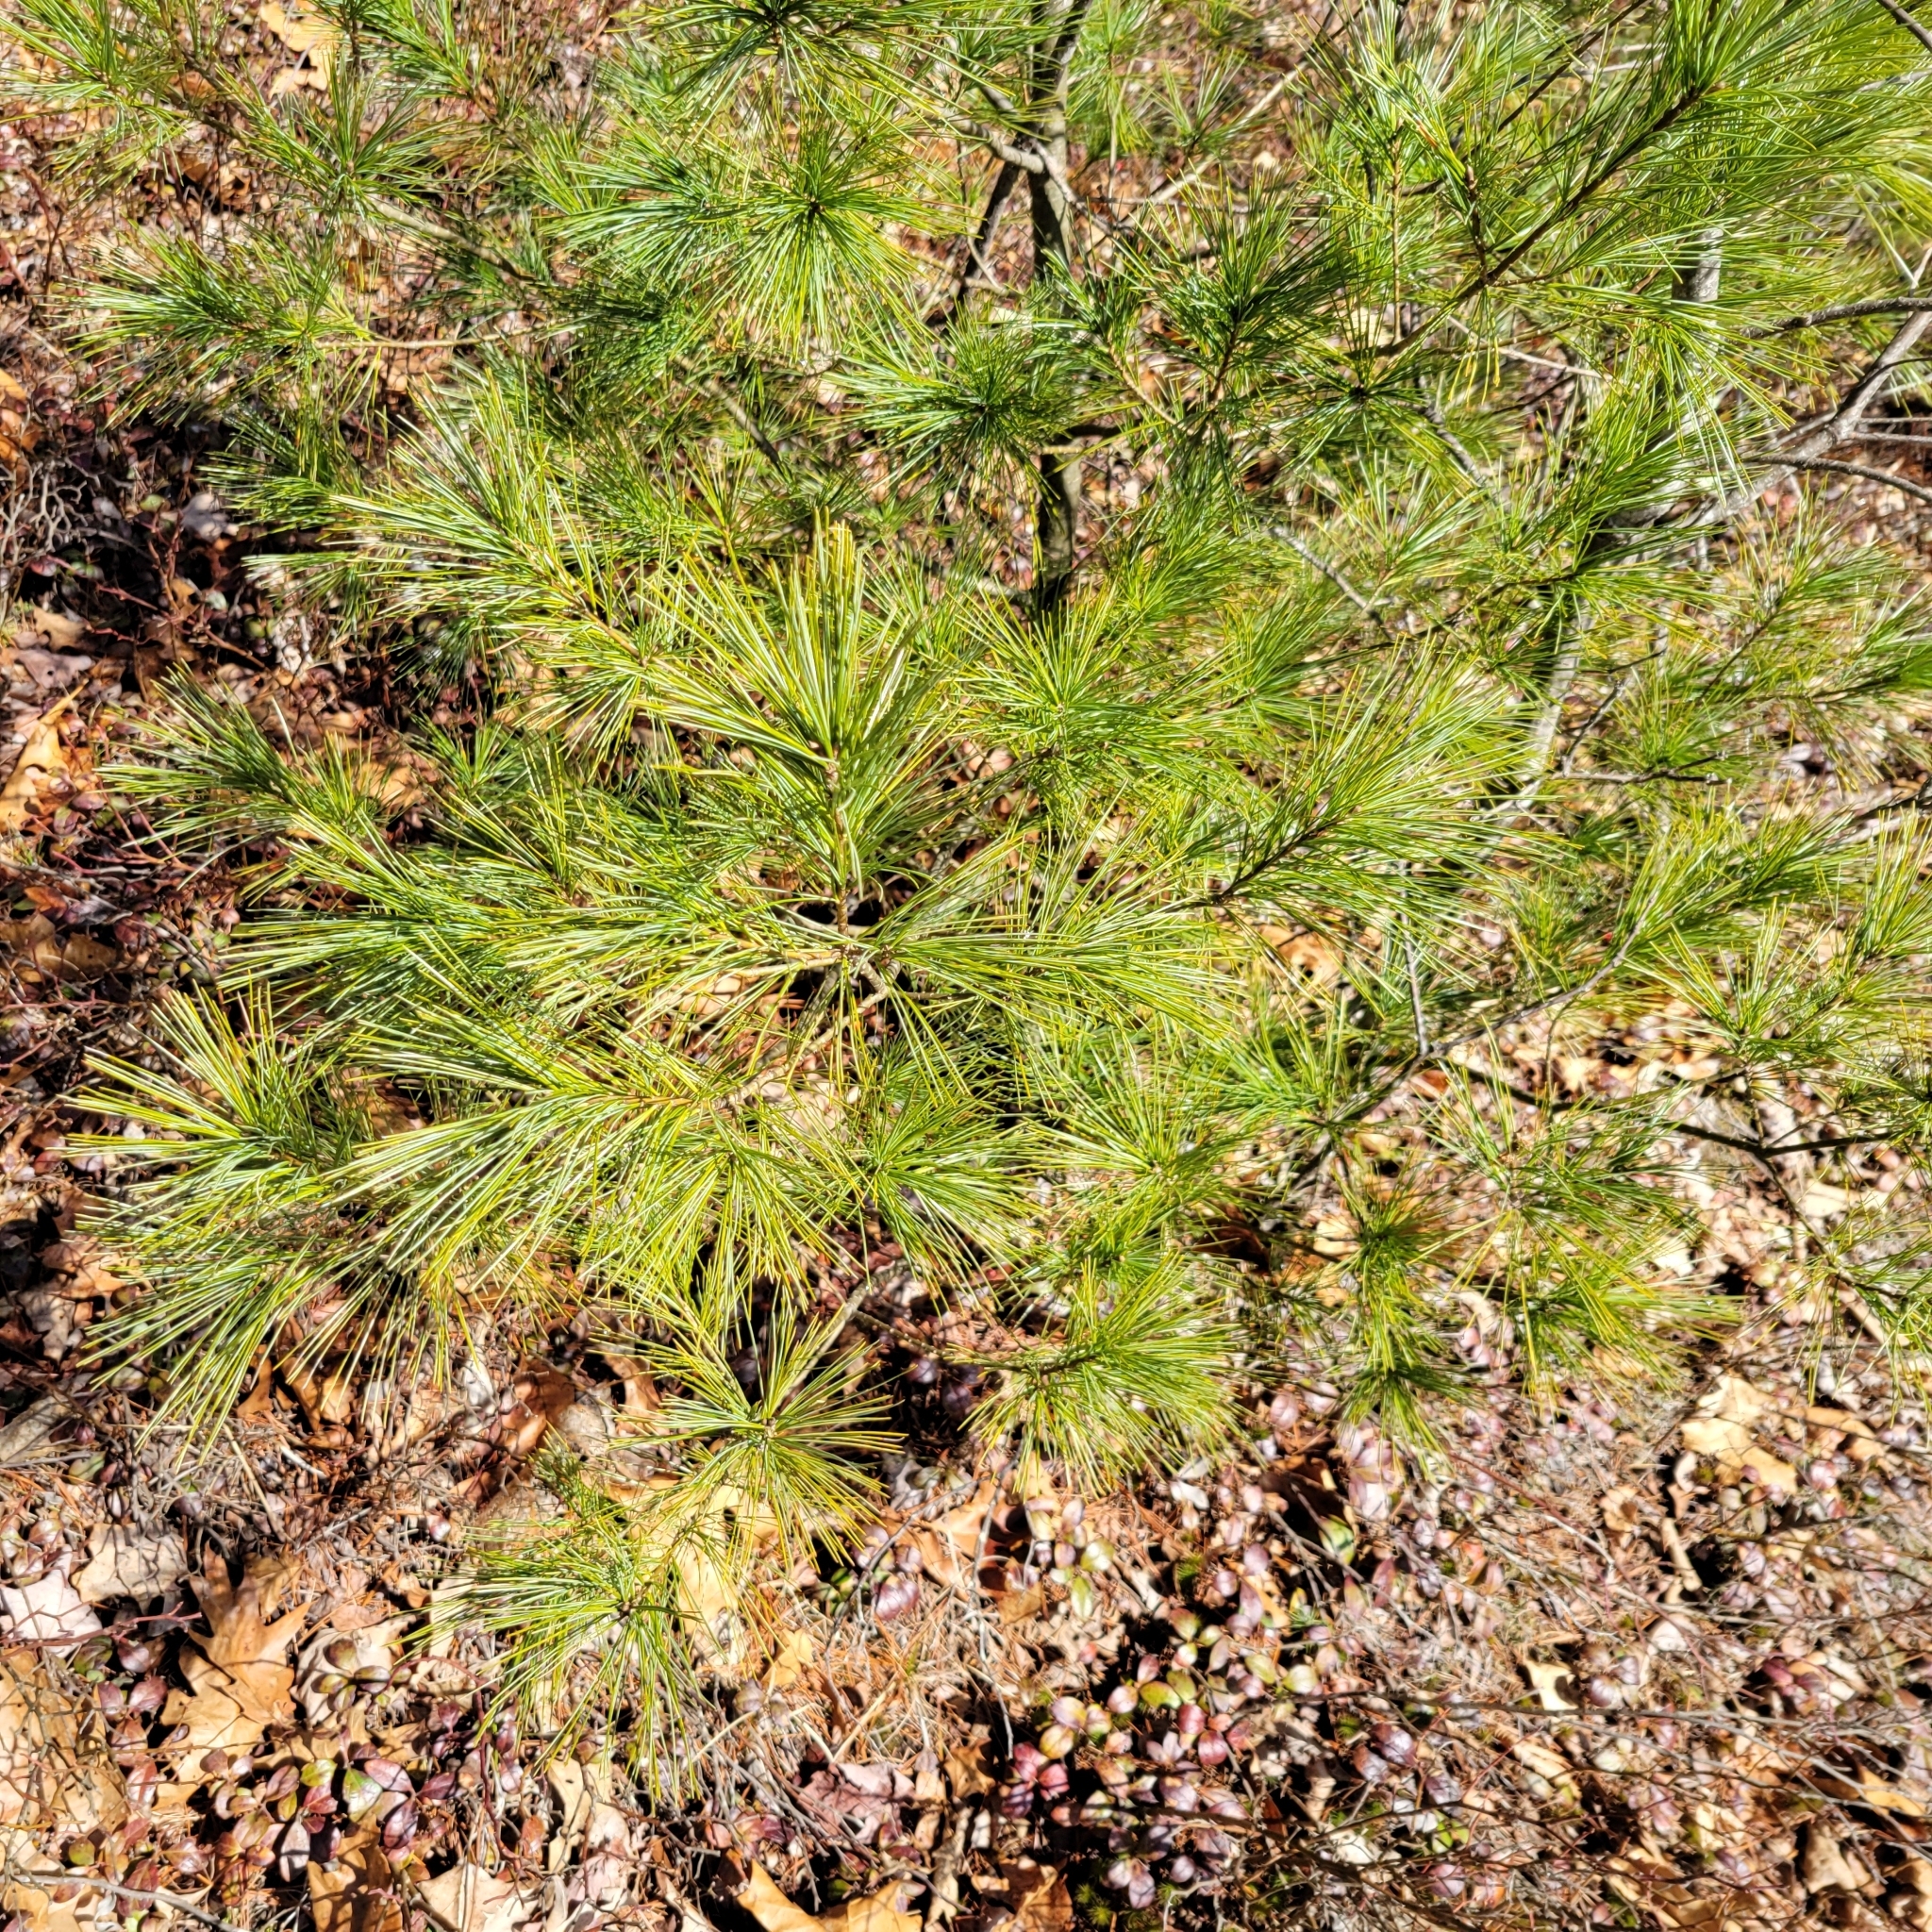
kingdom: Plantae
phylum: Tracheophyta
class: Pinopsida
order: Pinales
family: Pinaceae
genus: Pinus
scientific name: Pinus strobus
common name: Weymouth pine
